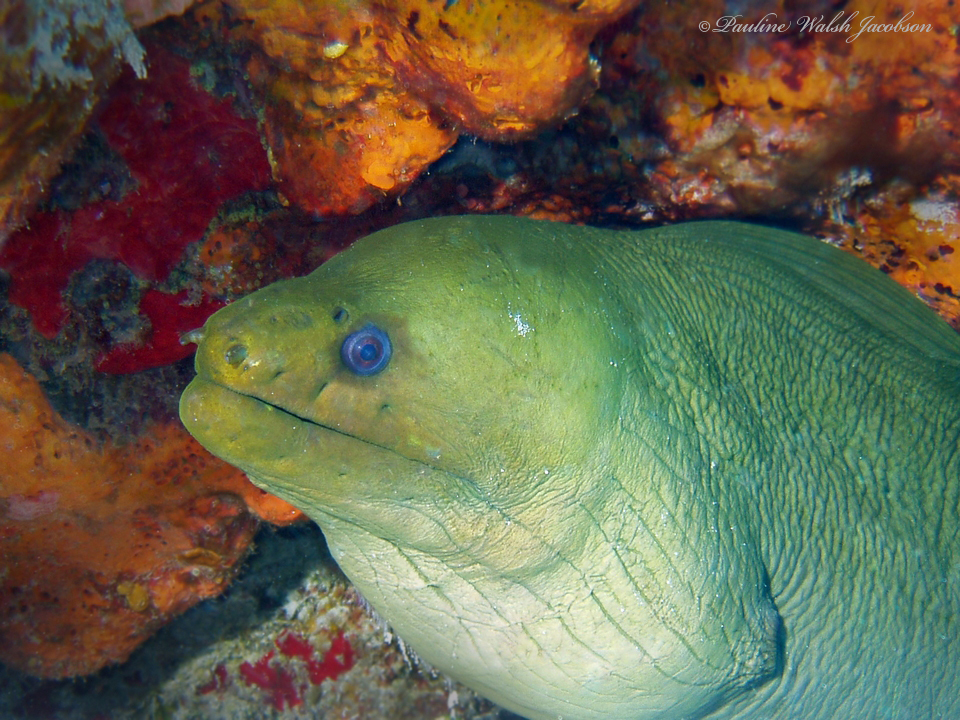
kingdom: Animalia
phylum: Chordata
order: Anguilliformes
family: Muraenidae
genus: Gymnothorax
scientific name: Gymnothorax funebris
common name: Green moray
